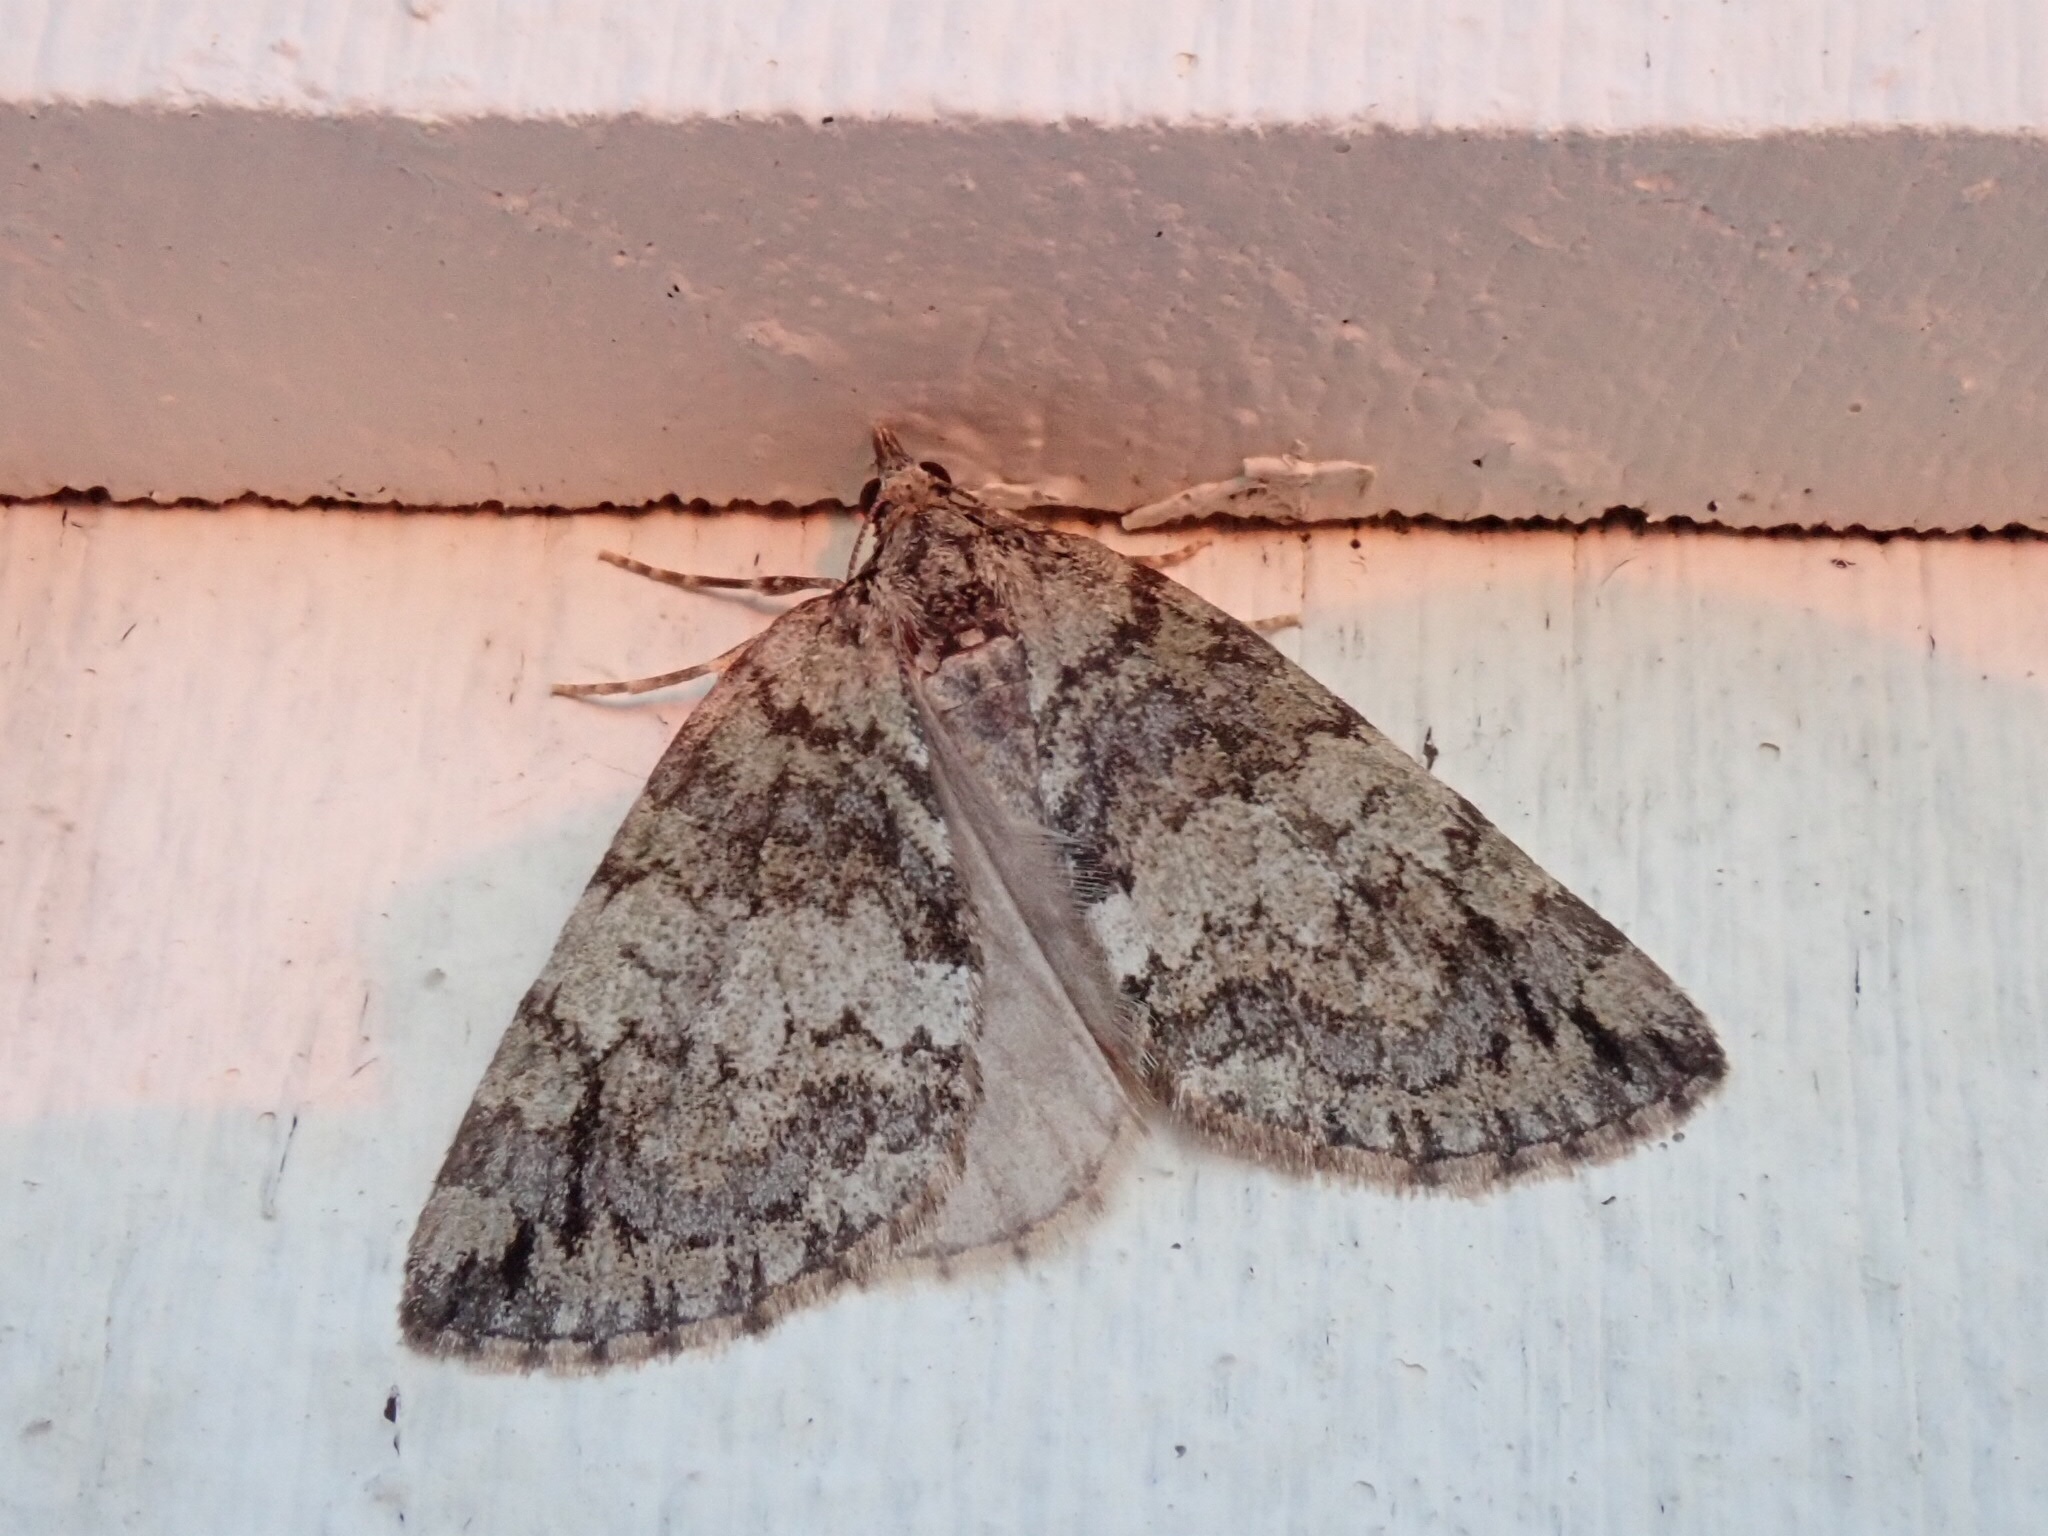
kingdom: Animalia
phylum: Arthropoda
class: Insecta
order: Lepidoptera
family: Geometridae
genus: Hydriomena
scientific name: Hydriomena renunciata
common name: Renounced hydriomena moth
